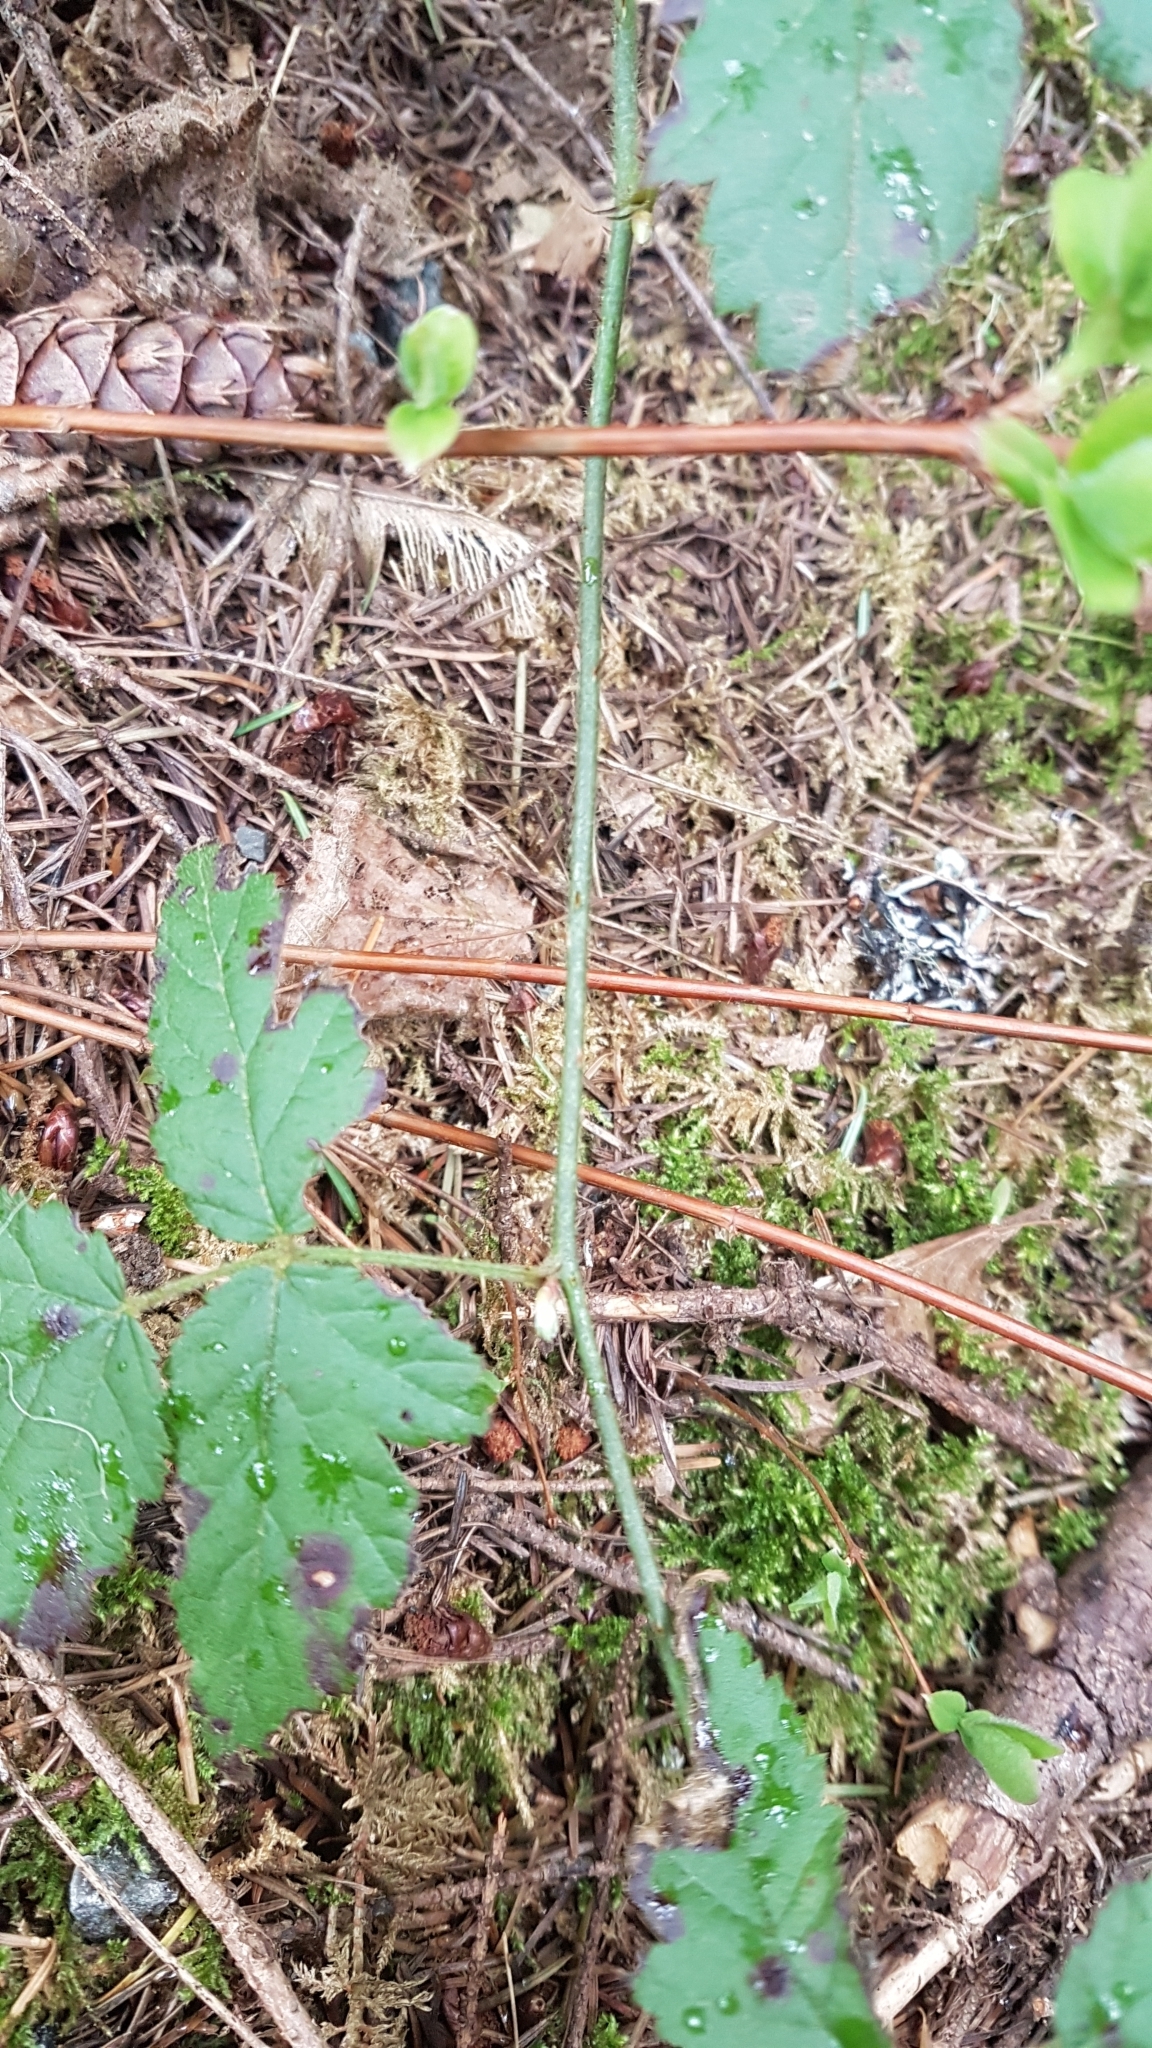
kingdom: Plantae
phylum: Tracheophyta
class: Magnoliopsida
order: Rosales
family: Rosaceae
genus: Rubus
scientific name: Rubus ursinus
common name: Pacific blackberry
